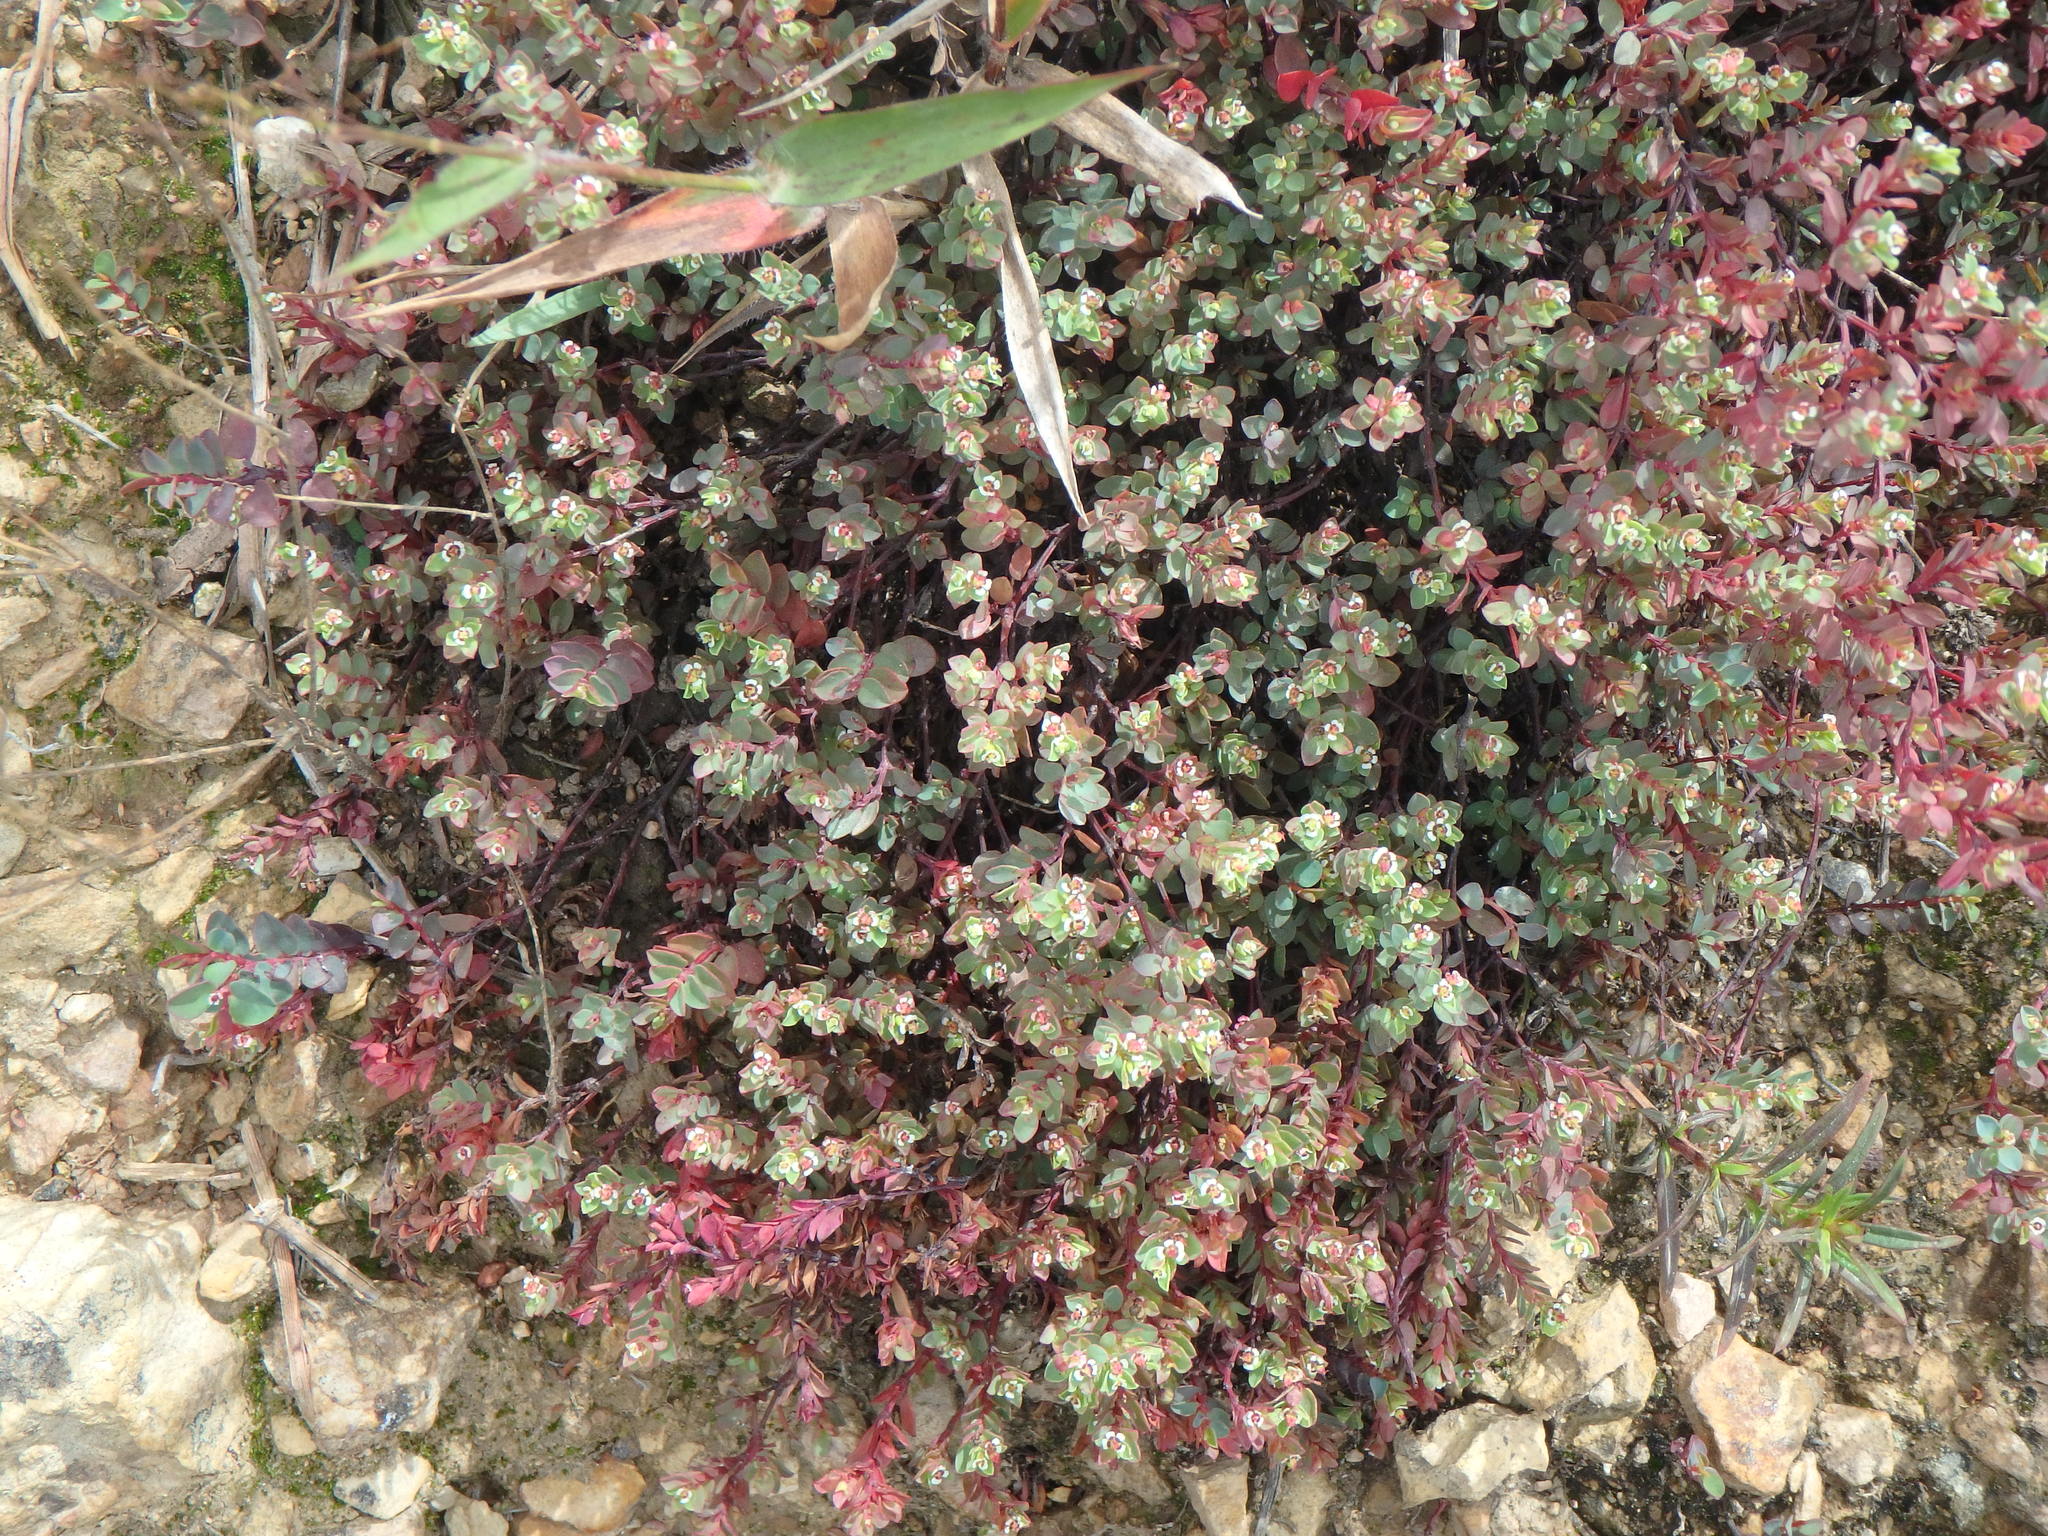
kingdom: Plantae
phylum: Tracheophyta
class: Magnoliopsida
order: Malpighiales
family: Euphorbiaceae
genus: Euphorbia
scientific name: Euphorbia orbiculata
